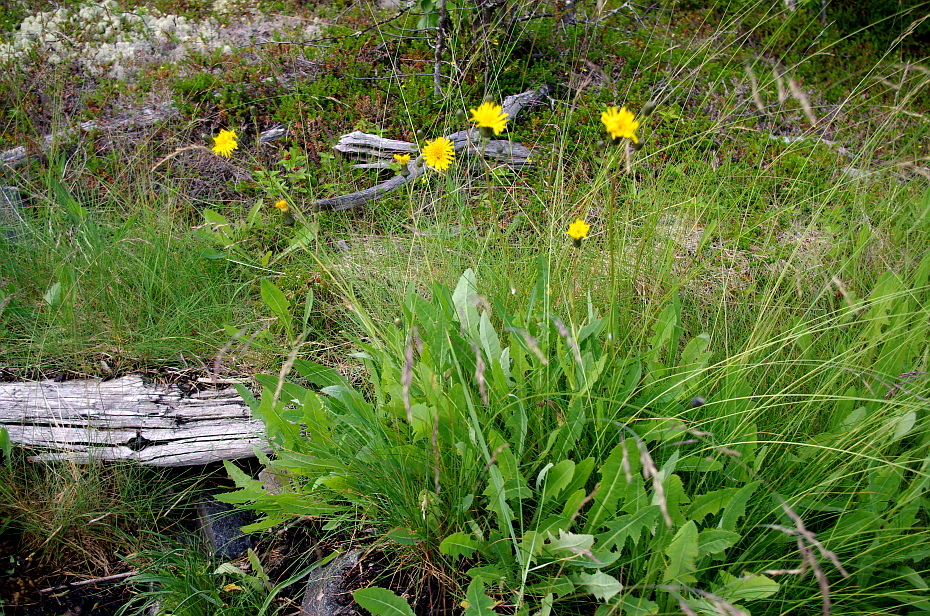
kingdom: Plantae
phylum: Tracheophyta
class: Magnoliopsida
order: Asterales
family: Asteraceae
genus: Sonchus
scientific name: Sonchus arvensis
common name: Perennial sow-thistle
